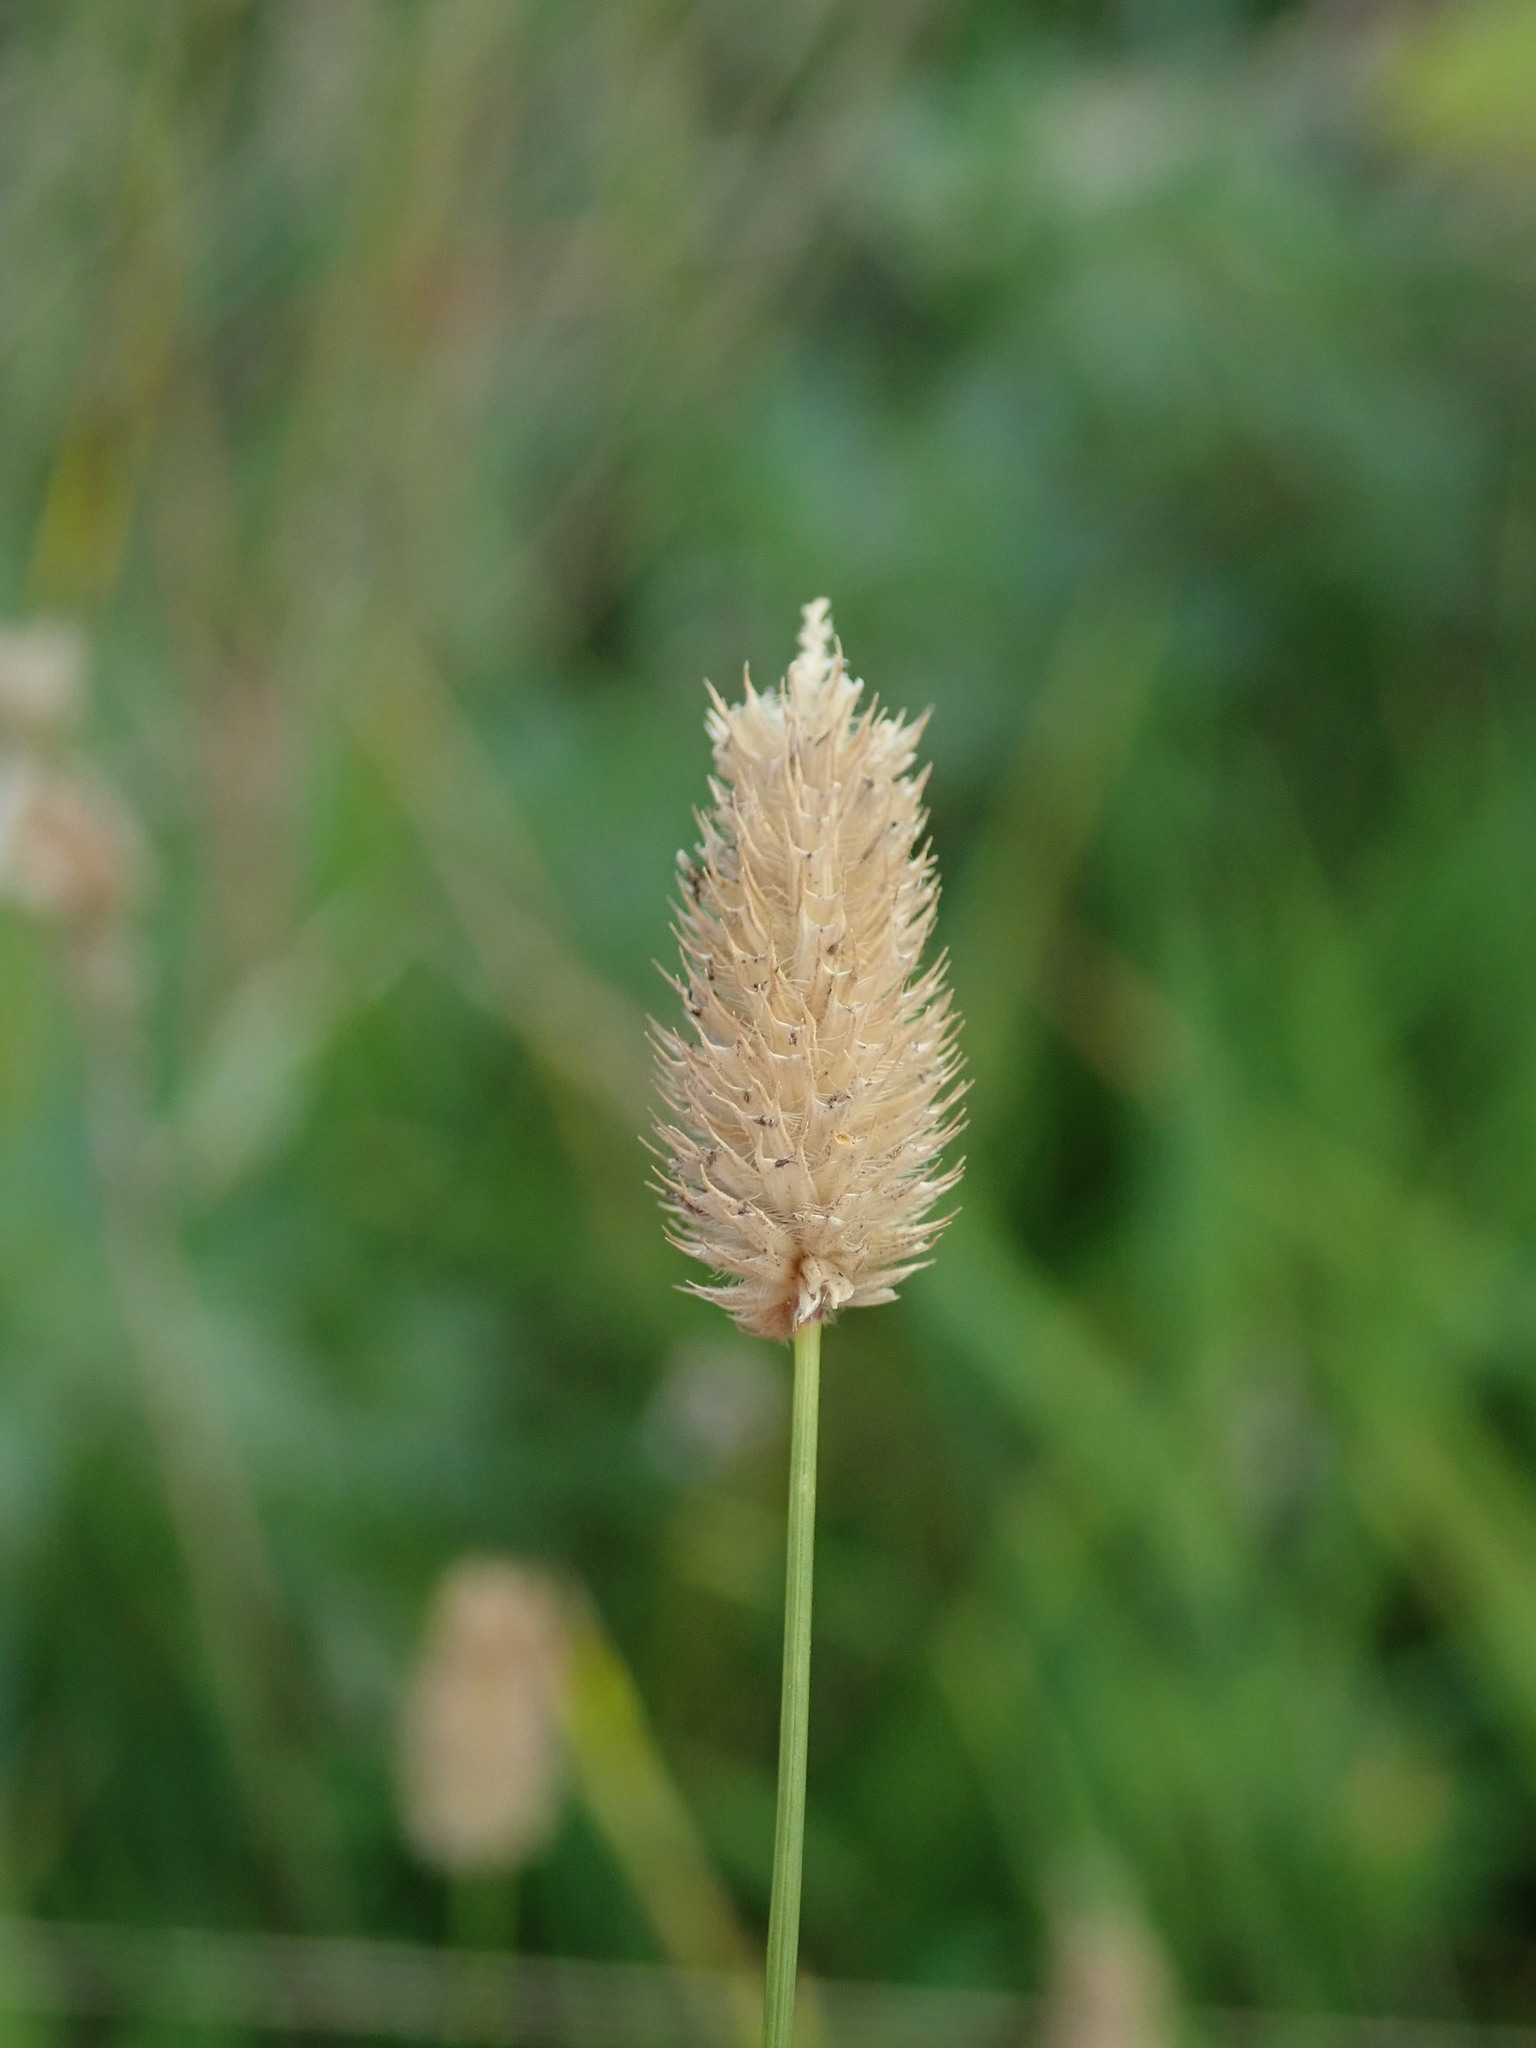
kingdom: Plantae
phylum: Tracheophyta
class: Liliopsida
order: Poales
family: Poaceae
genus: Phleum
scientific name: Phleum bertolonii
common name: Smaller cat's-tail
